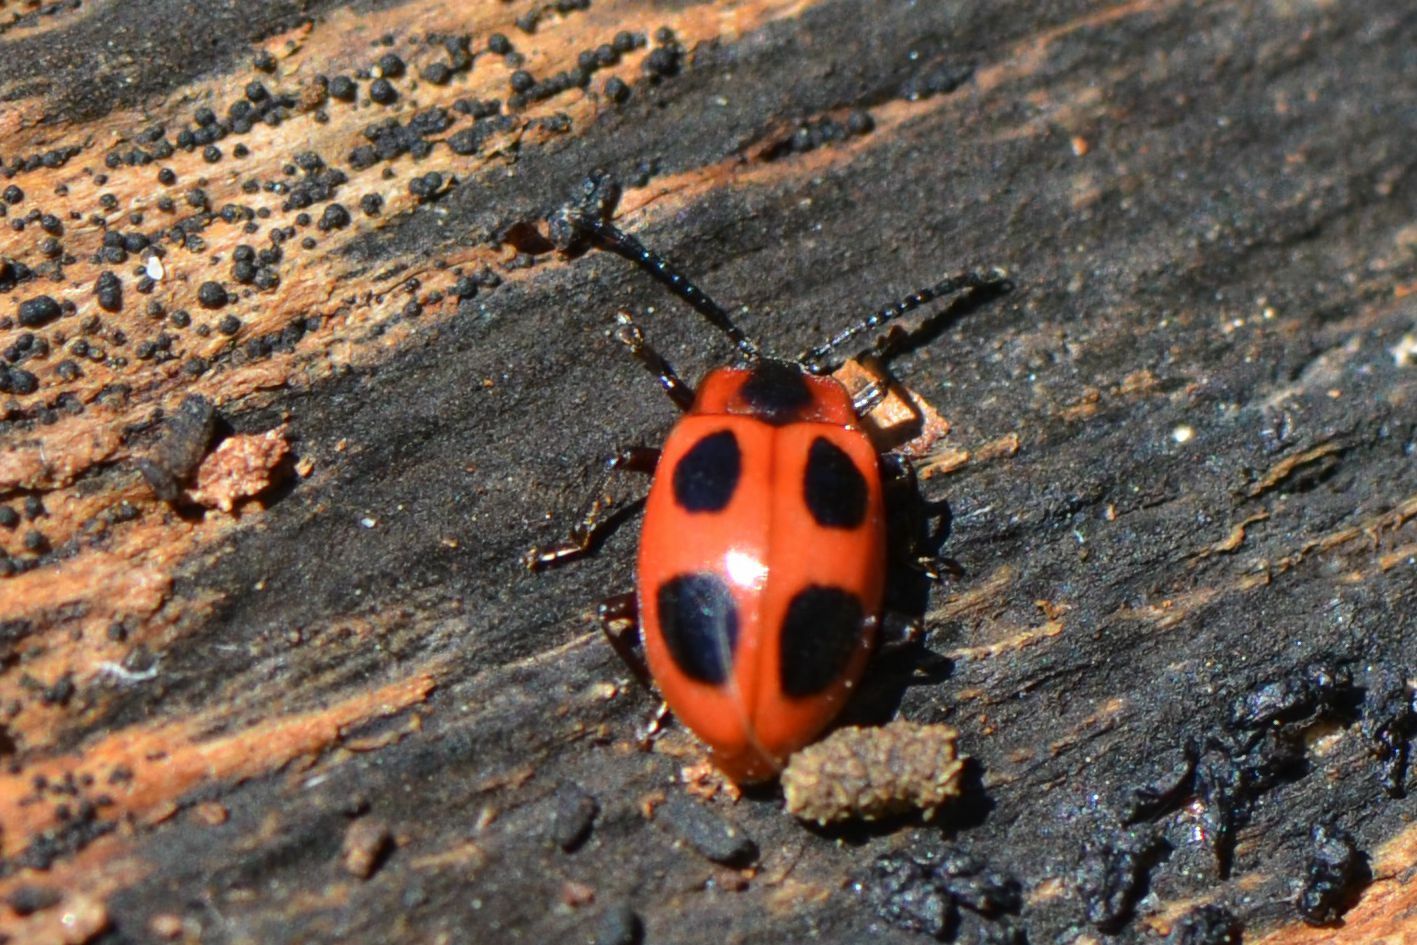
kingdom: Animalia
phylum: Arthropoda
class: Insecta
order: Coleoptera
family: Endomychidae
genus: Endomychus
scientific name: Endomychus coccineus
